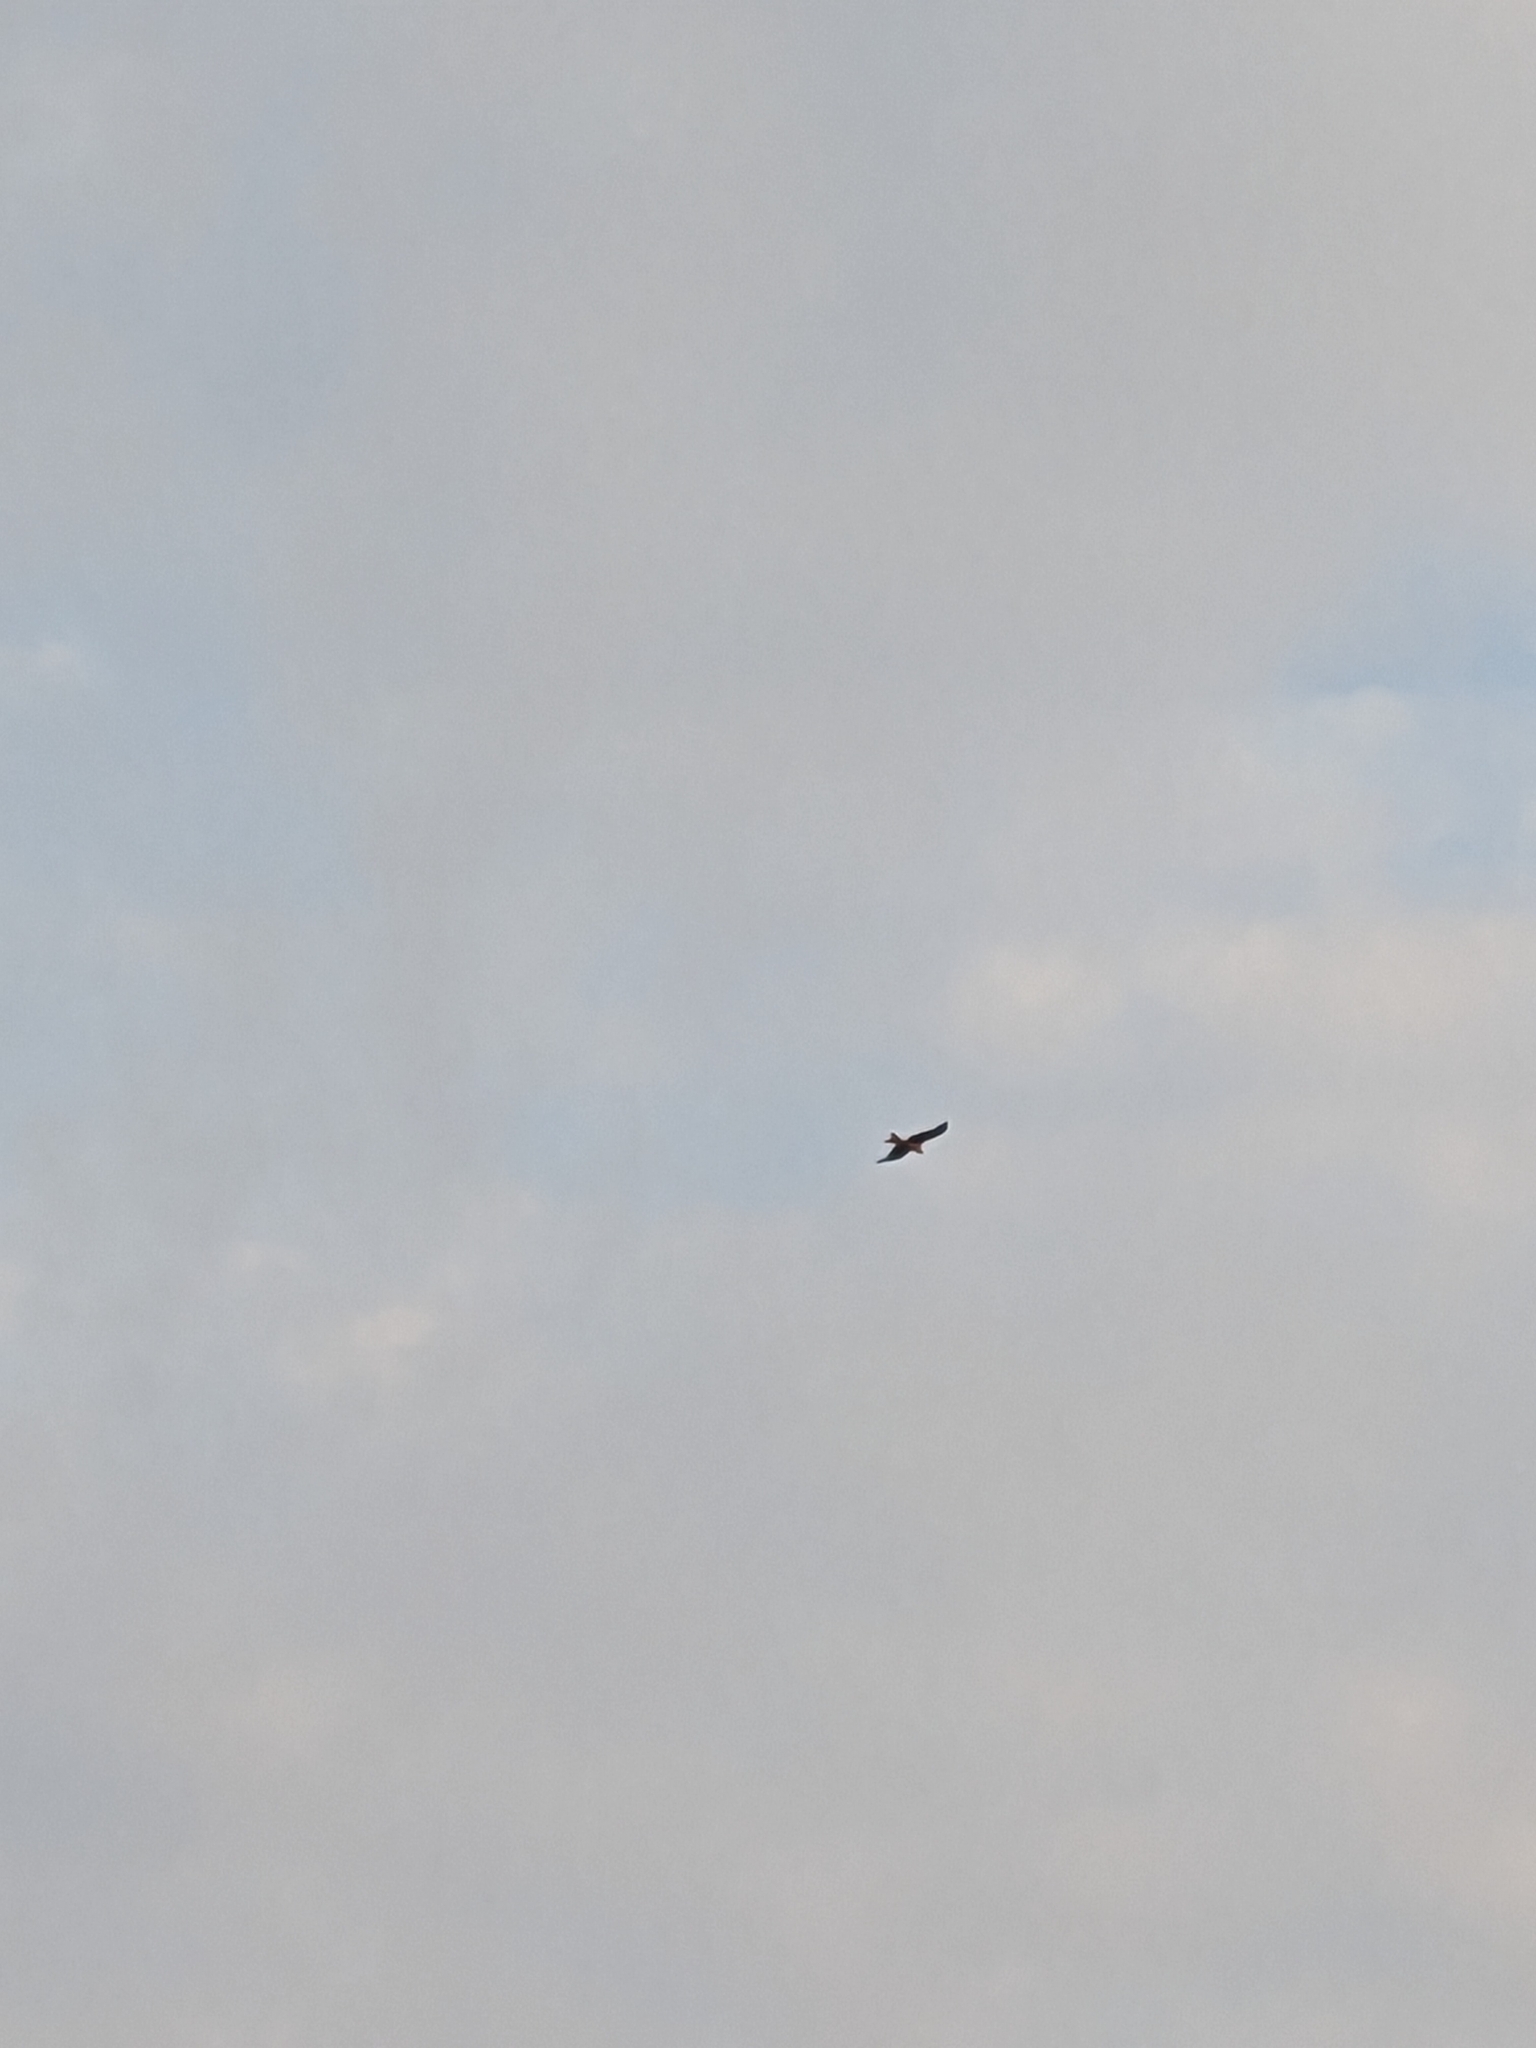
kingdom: Animalia
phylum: Chordata
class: Aves
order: Accipitriformes
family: Accipitridae
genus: Milvus
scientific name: Milvus milvus
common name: Red kite
